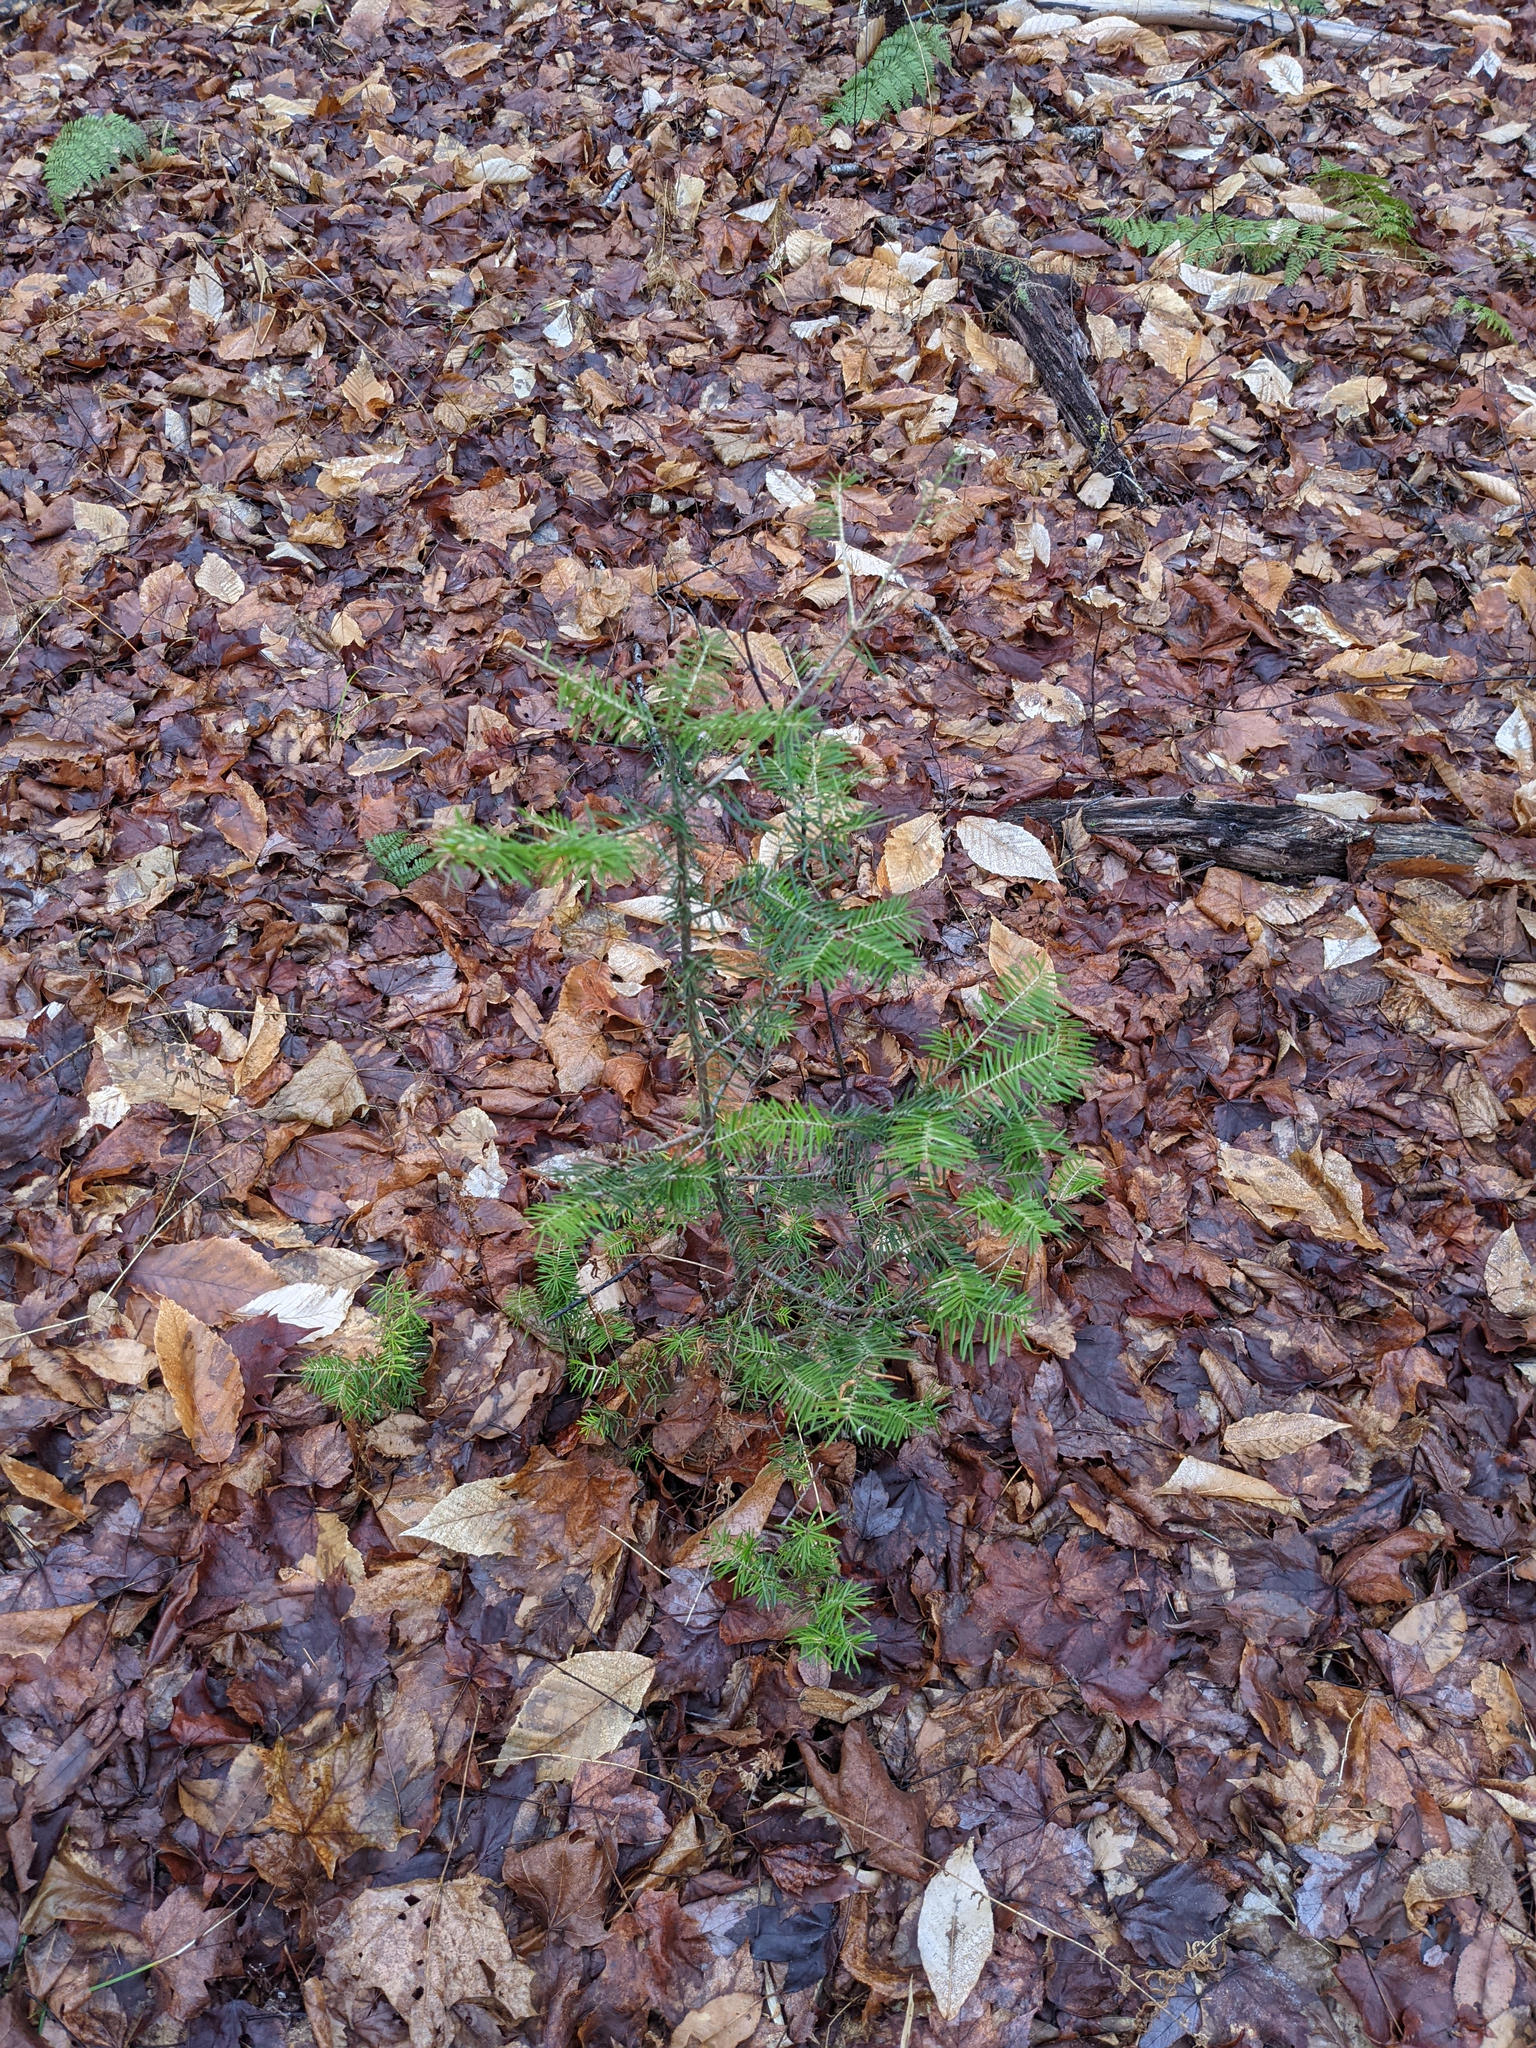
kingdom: Plantae
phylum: Tracheophyta
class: Pinopsida
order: Pinales
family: Pinaceae
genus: Abies
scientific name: Abies balsamea
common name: Balsam fir
